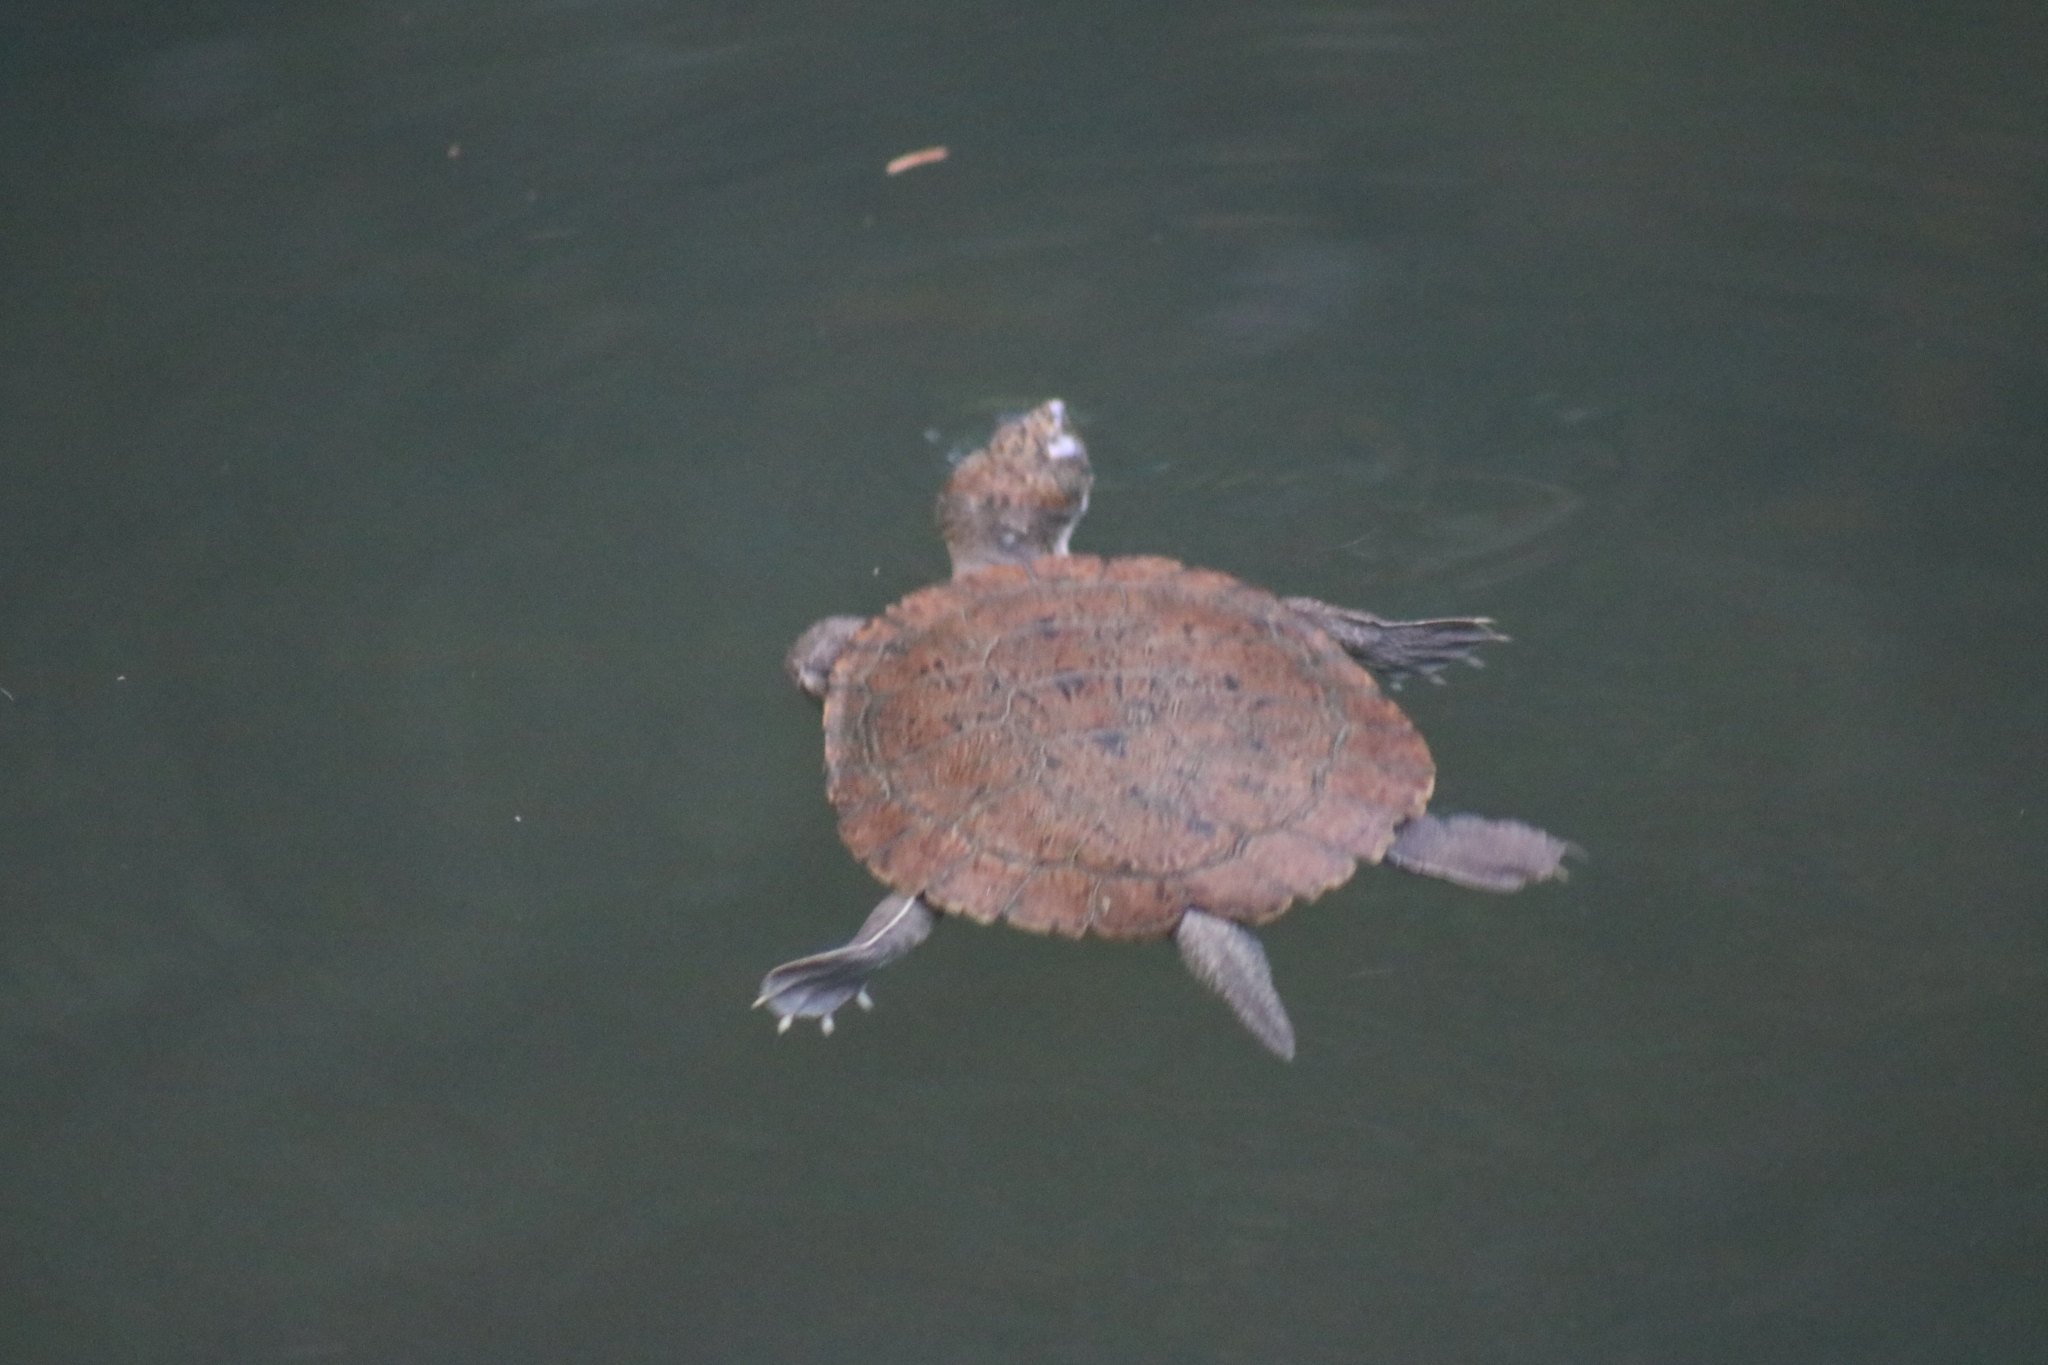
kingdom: Animalia
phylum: Chordata
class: Testudines
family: Chelidae
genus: Myuchelys
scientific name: Myuchelys latisternum
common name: Serrated snapping turtle
